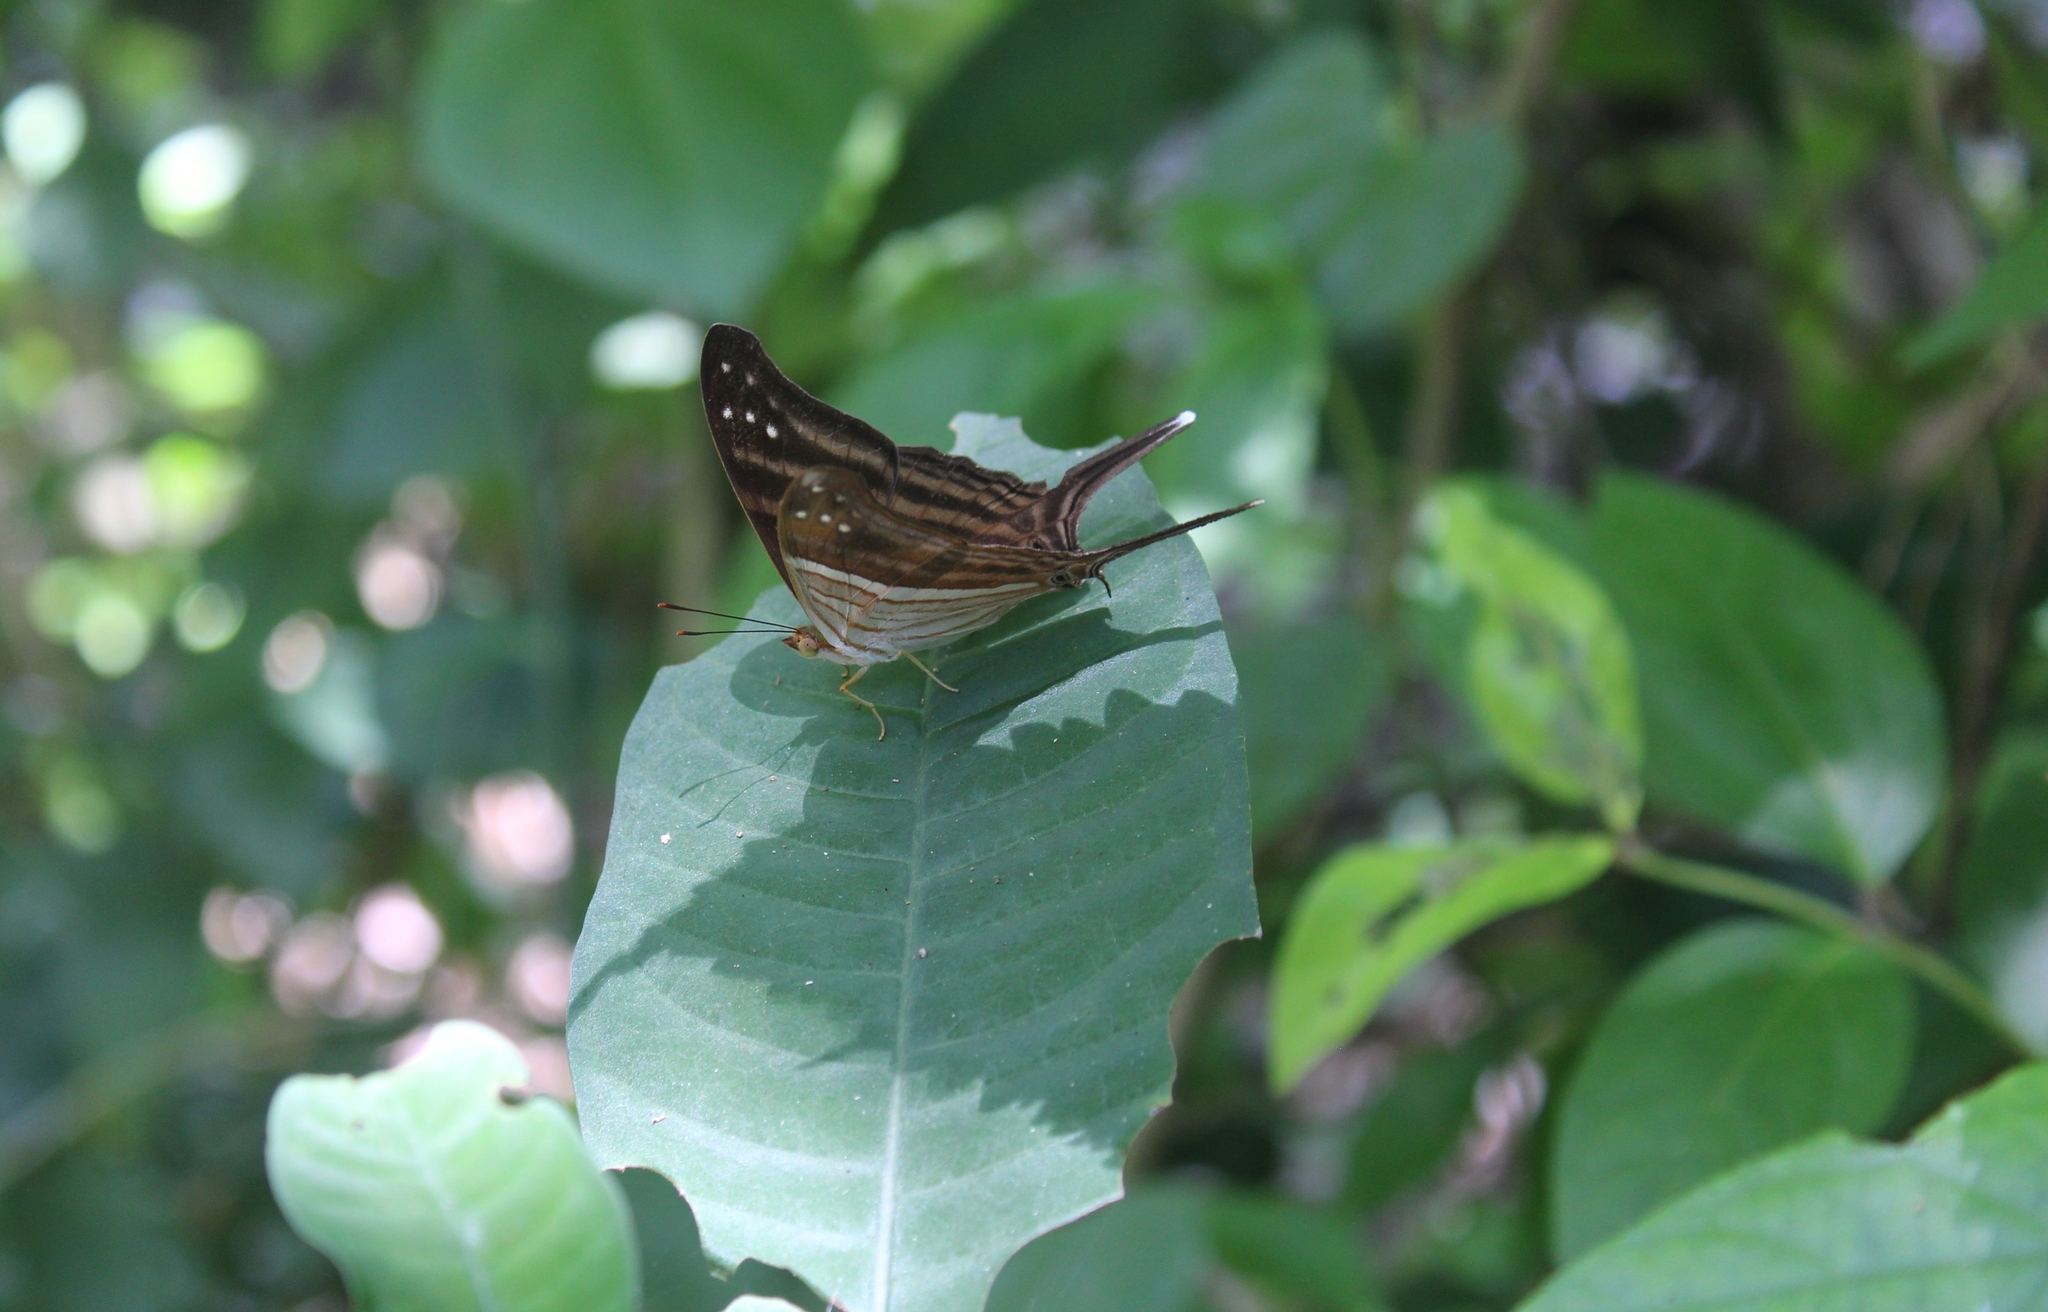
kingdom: Animalia
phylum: Arthropoda
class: Insecta
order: Lepidoptera
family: Nymphalidae
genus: Marpesia
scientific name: Marpesia chiron
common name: Many-banded daggerwing
